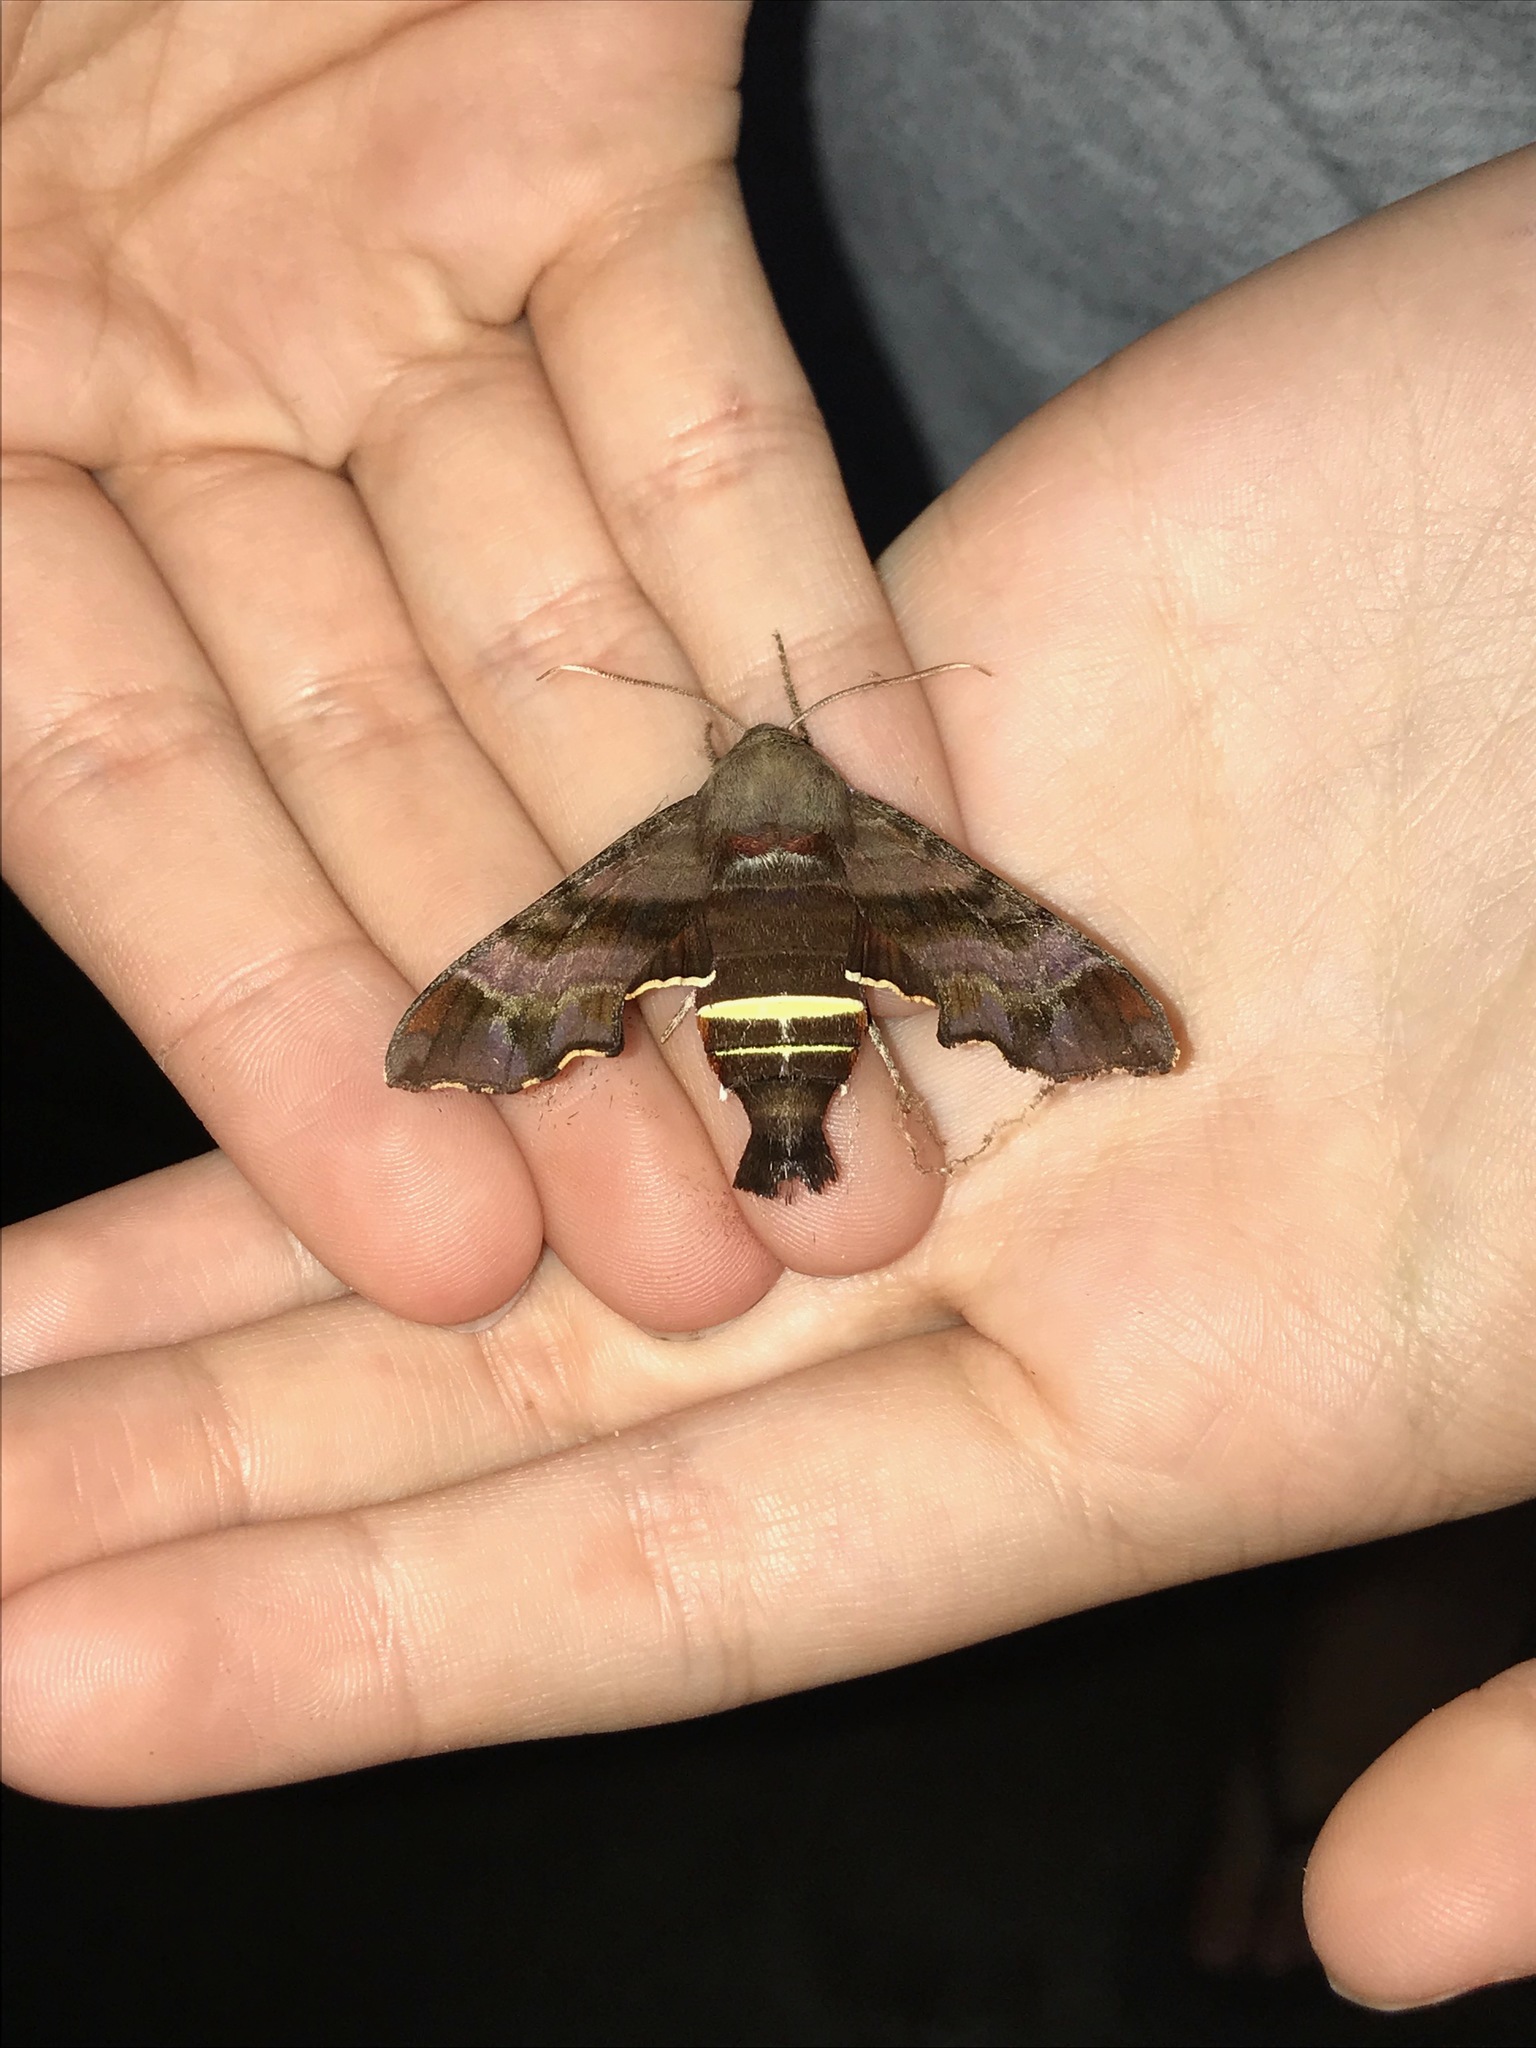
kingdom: Animalia
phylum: Arthropoda
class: Insecta
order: Lepidoptera
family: Sphingidae
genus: Amphion
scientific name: Amphion floridensis
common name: Nessus sphinx
